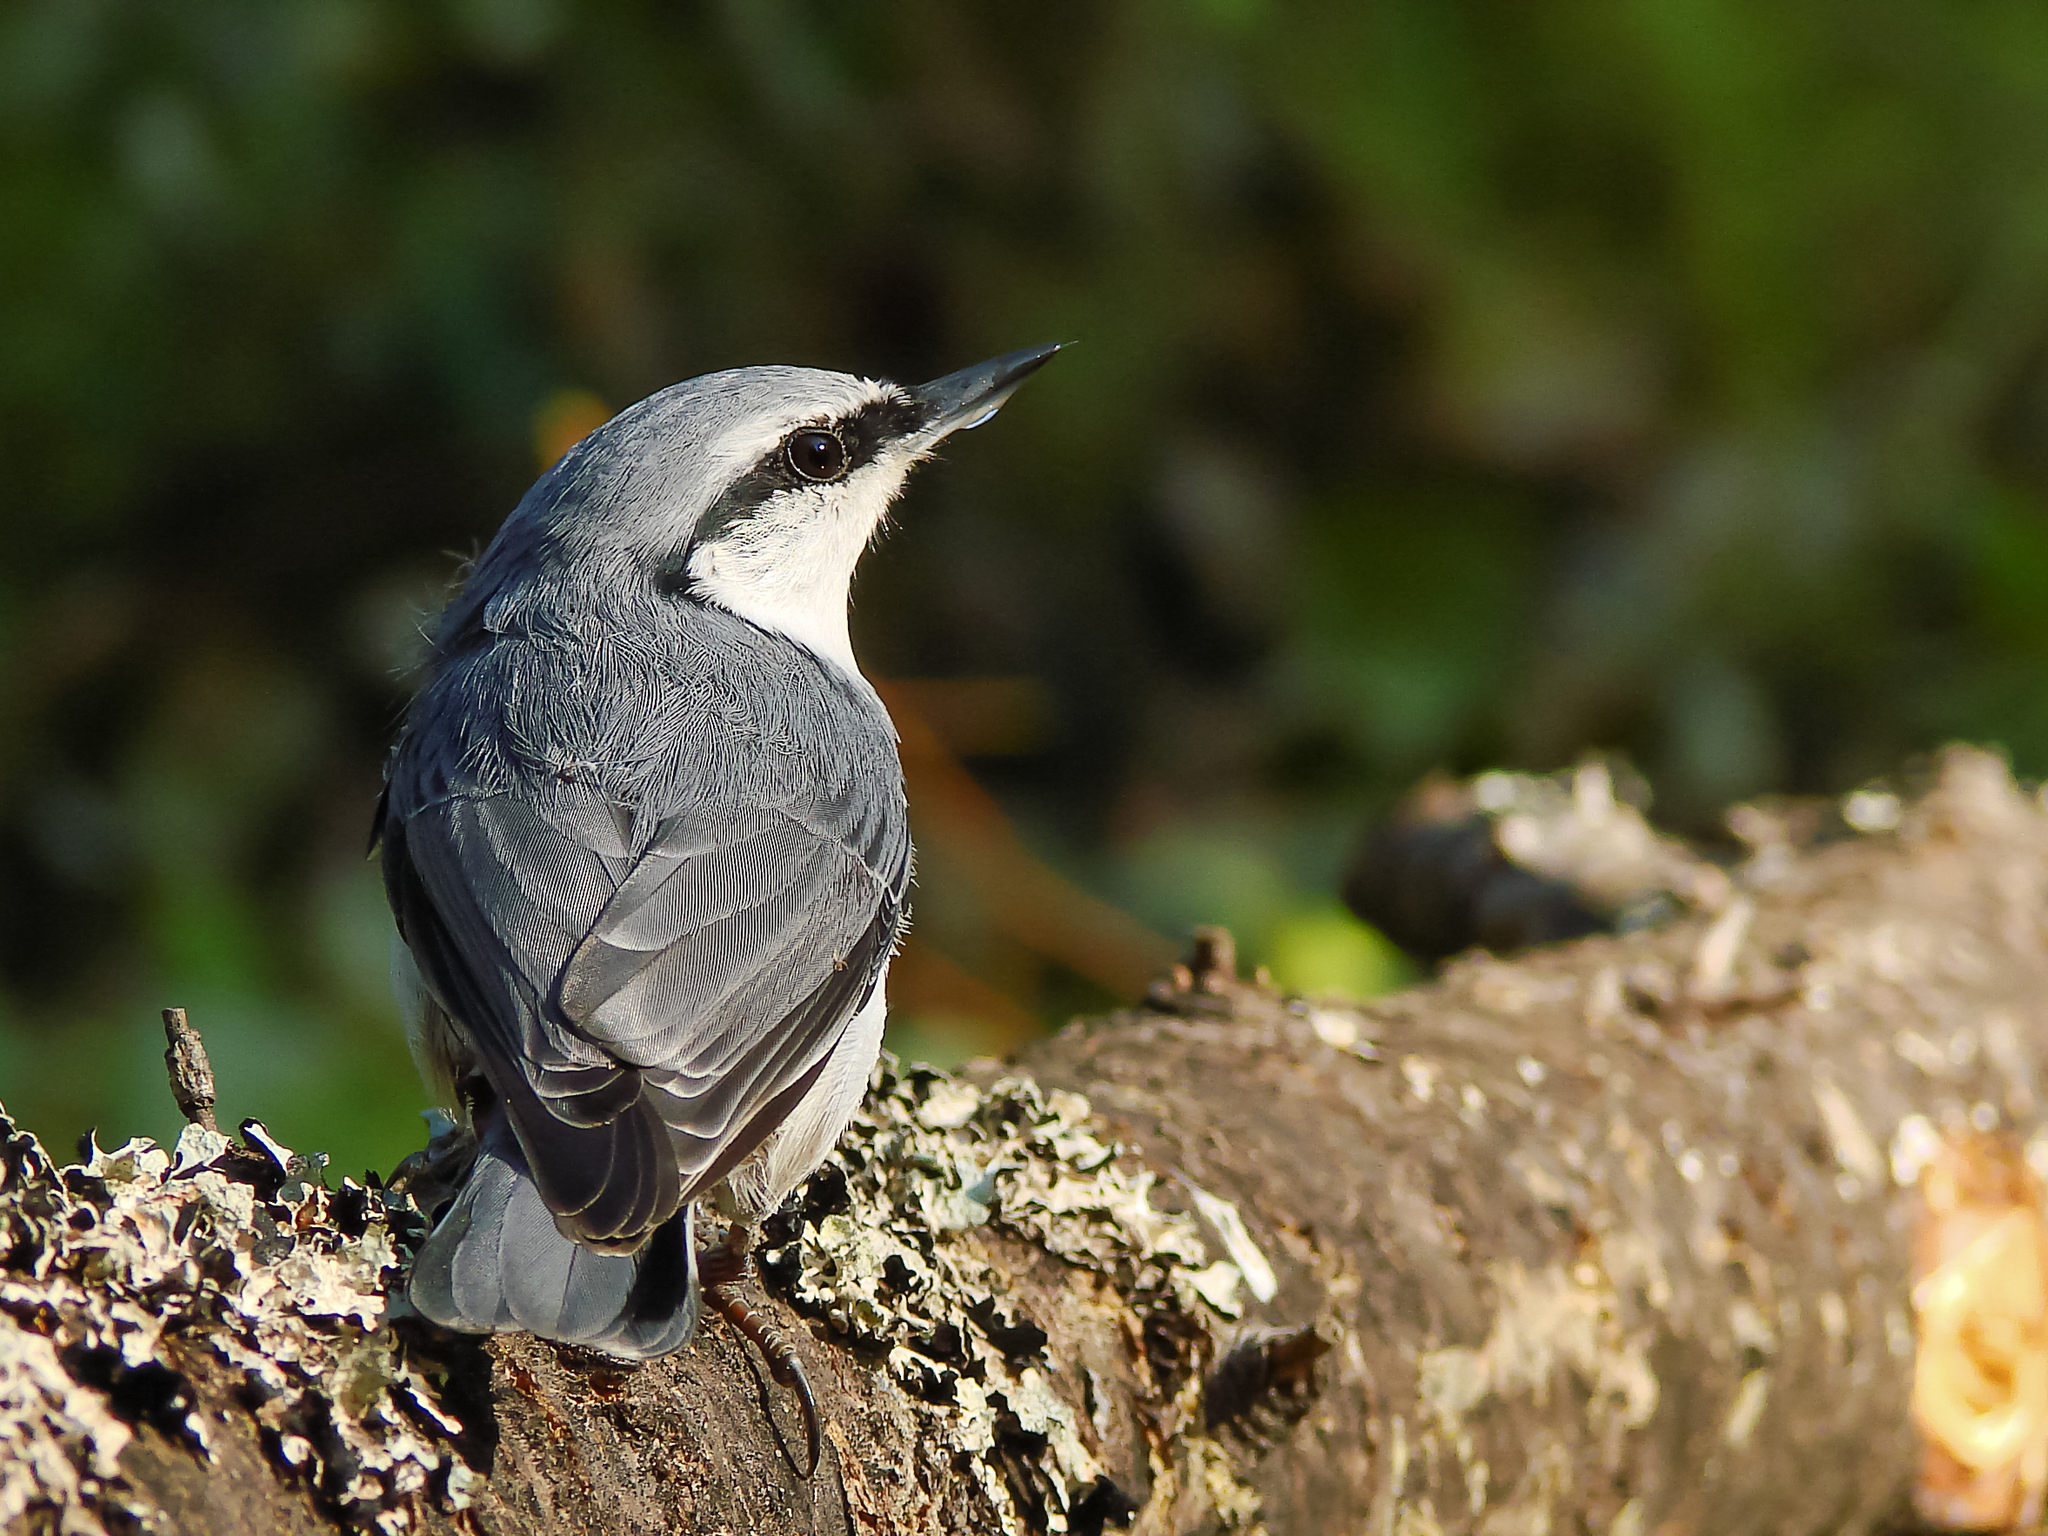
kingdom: Animalia
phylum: Chordata
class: Aves
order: Passeriformes
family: Sittidae
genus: Sitta
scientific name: Sitta europaea
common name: Eurasian nuthatch
